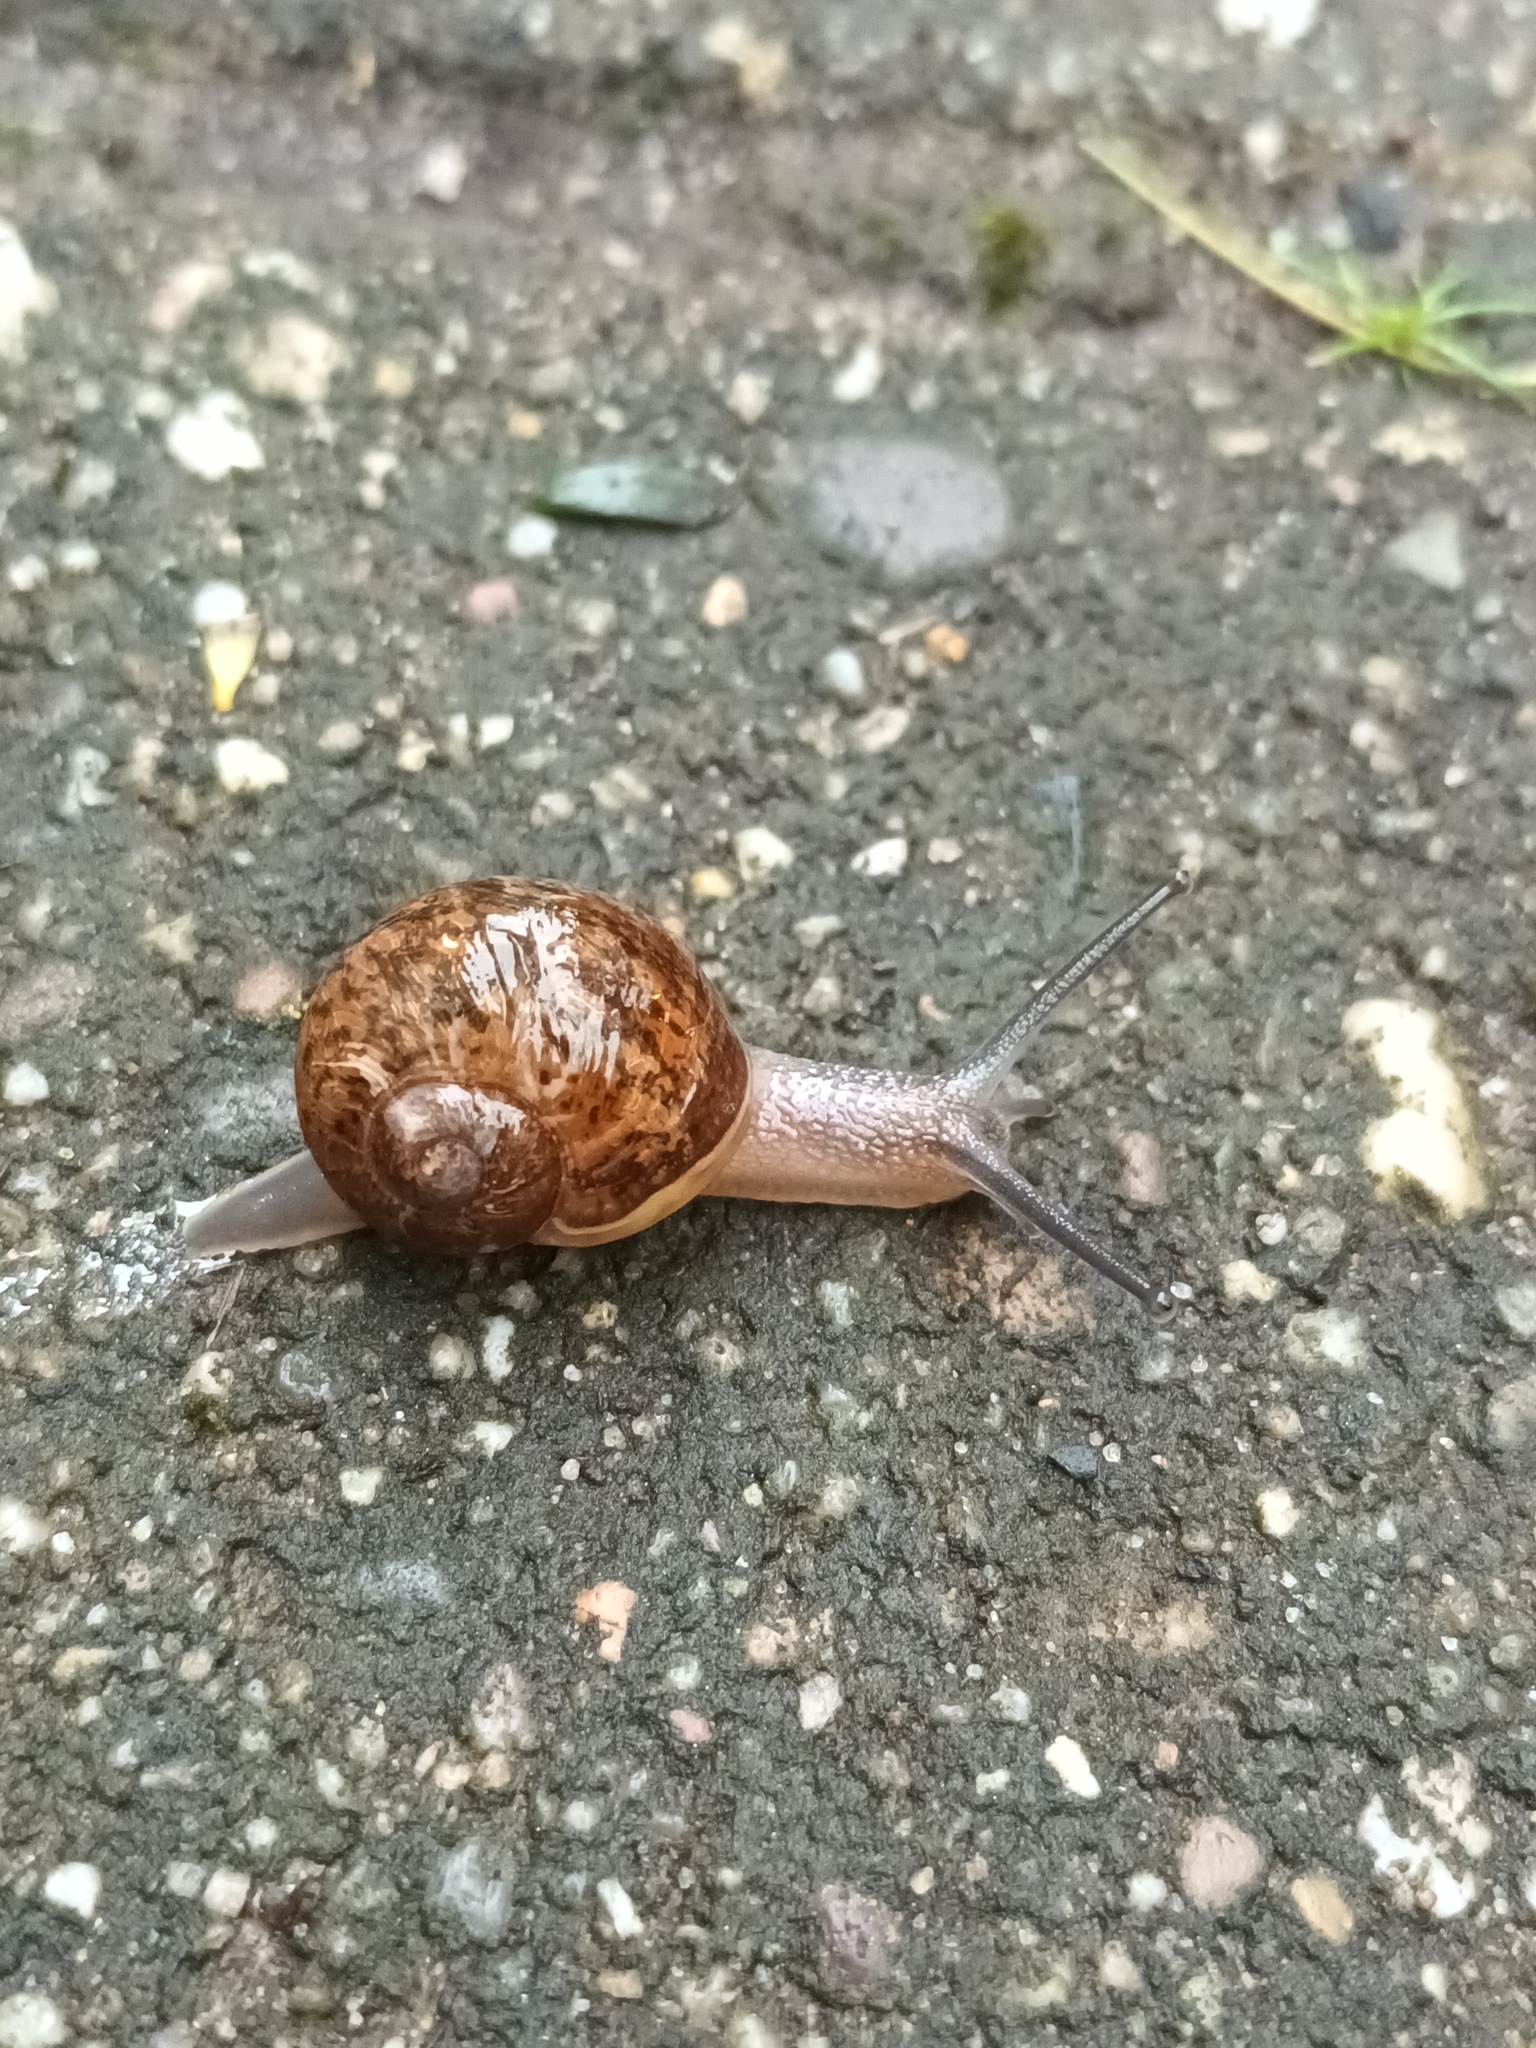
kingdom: Animalia
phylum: Mollusca
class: Gastropoda
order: Stylommatophora
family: Helicidae
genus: Cornu
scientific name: Cornu aspersum
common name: Brown garden snail
